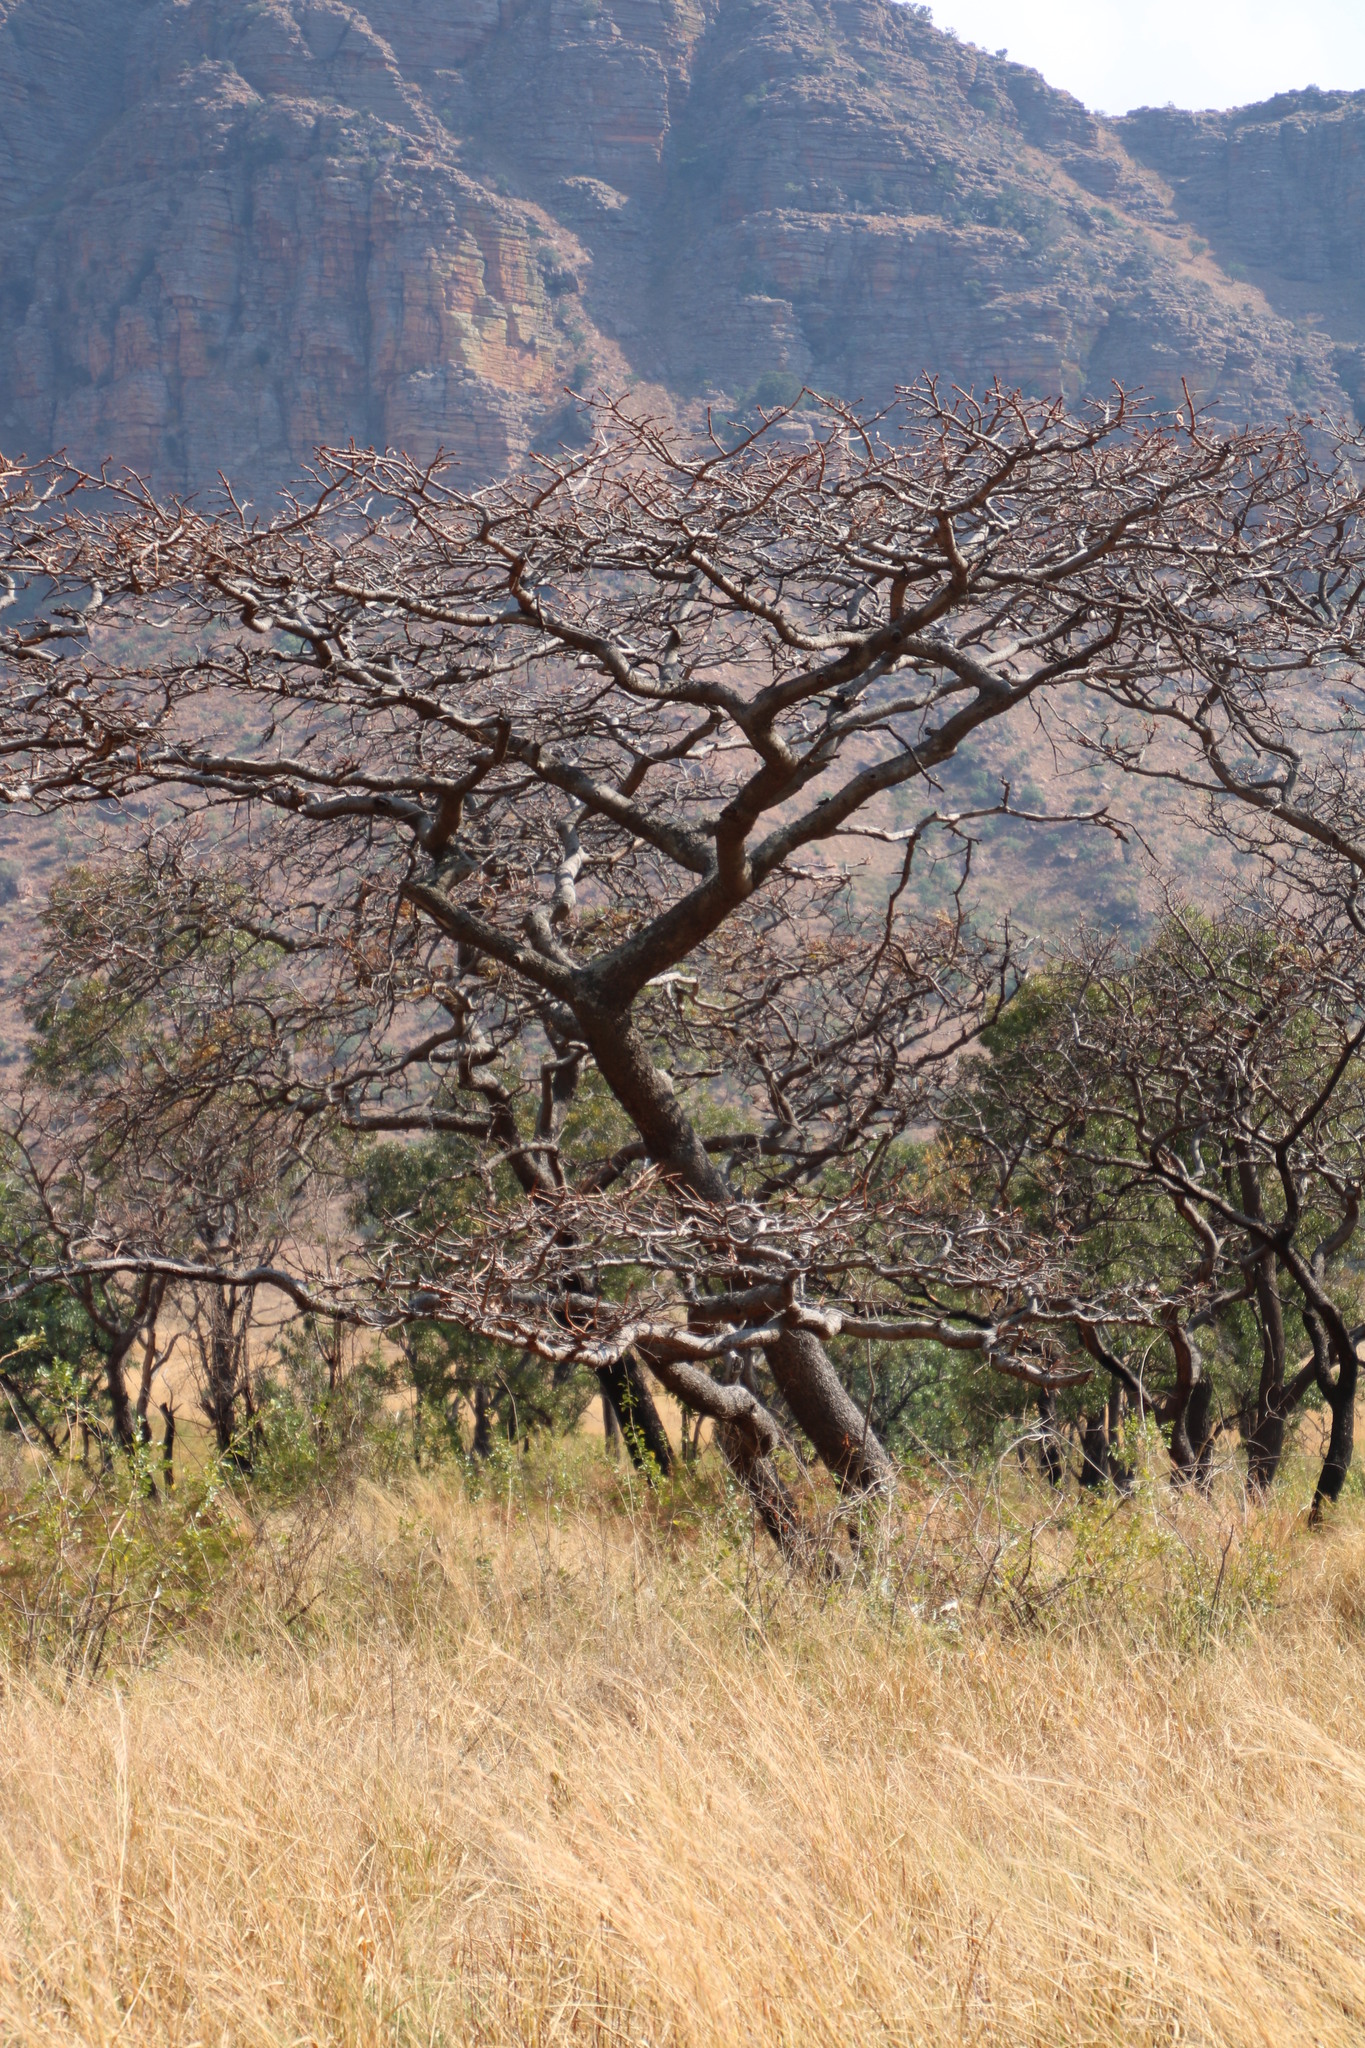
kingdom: Plantae
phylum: Tracheophyta
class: Magnoliopsida
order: Fabales
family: Fabaceae
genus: Burkea
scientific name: Burkea africana
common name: Mkalati tree
